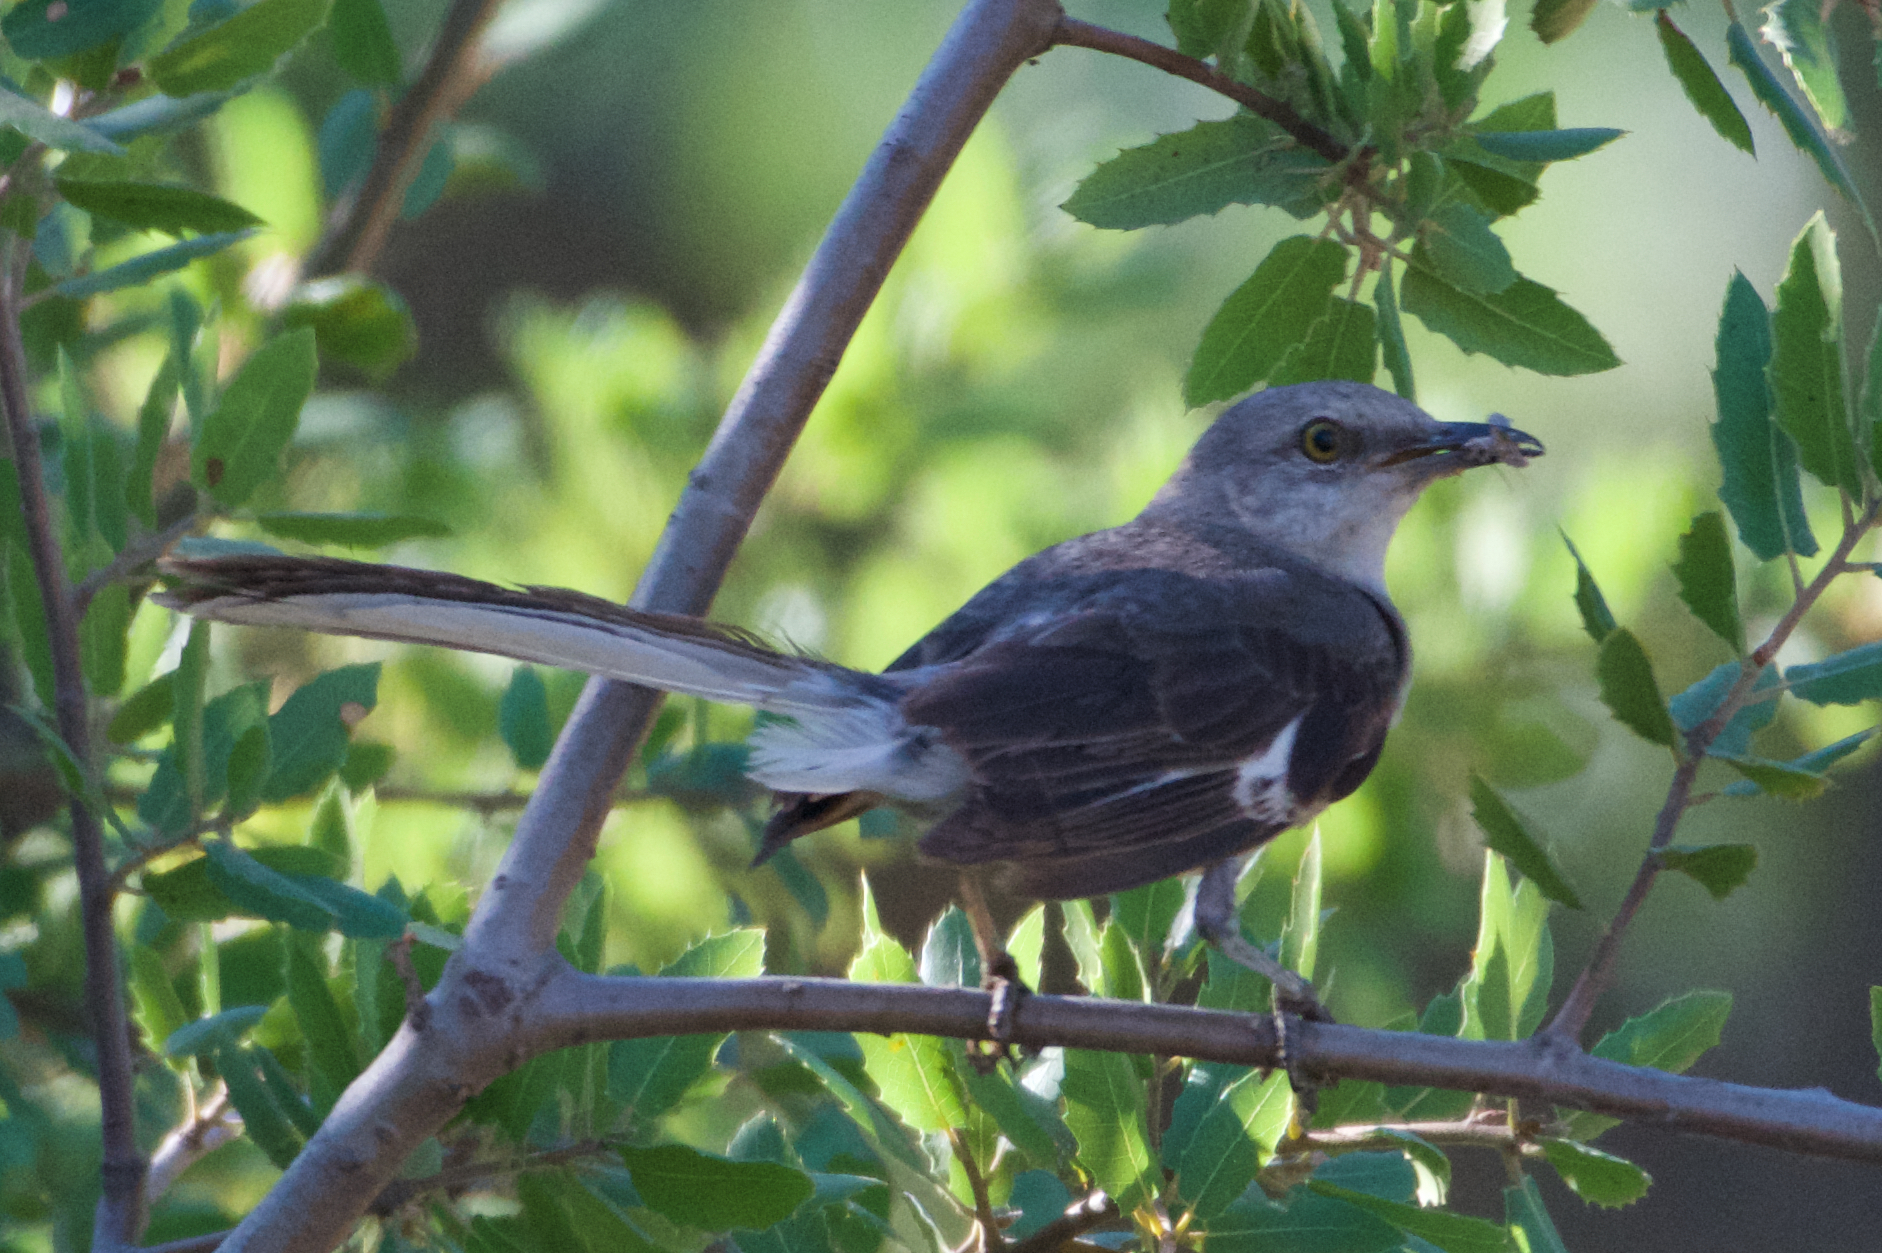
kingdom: Animalia
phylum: Chordata
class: Aves
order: Passeriformes
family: Mimidae
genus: Mimus
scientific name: Mimus polyglottos
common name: Northern mockingbird
